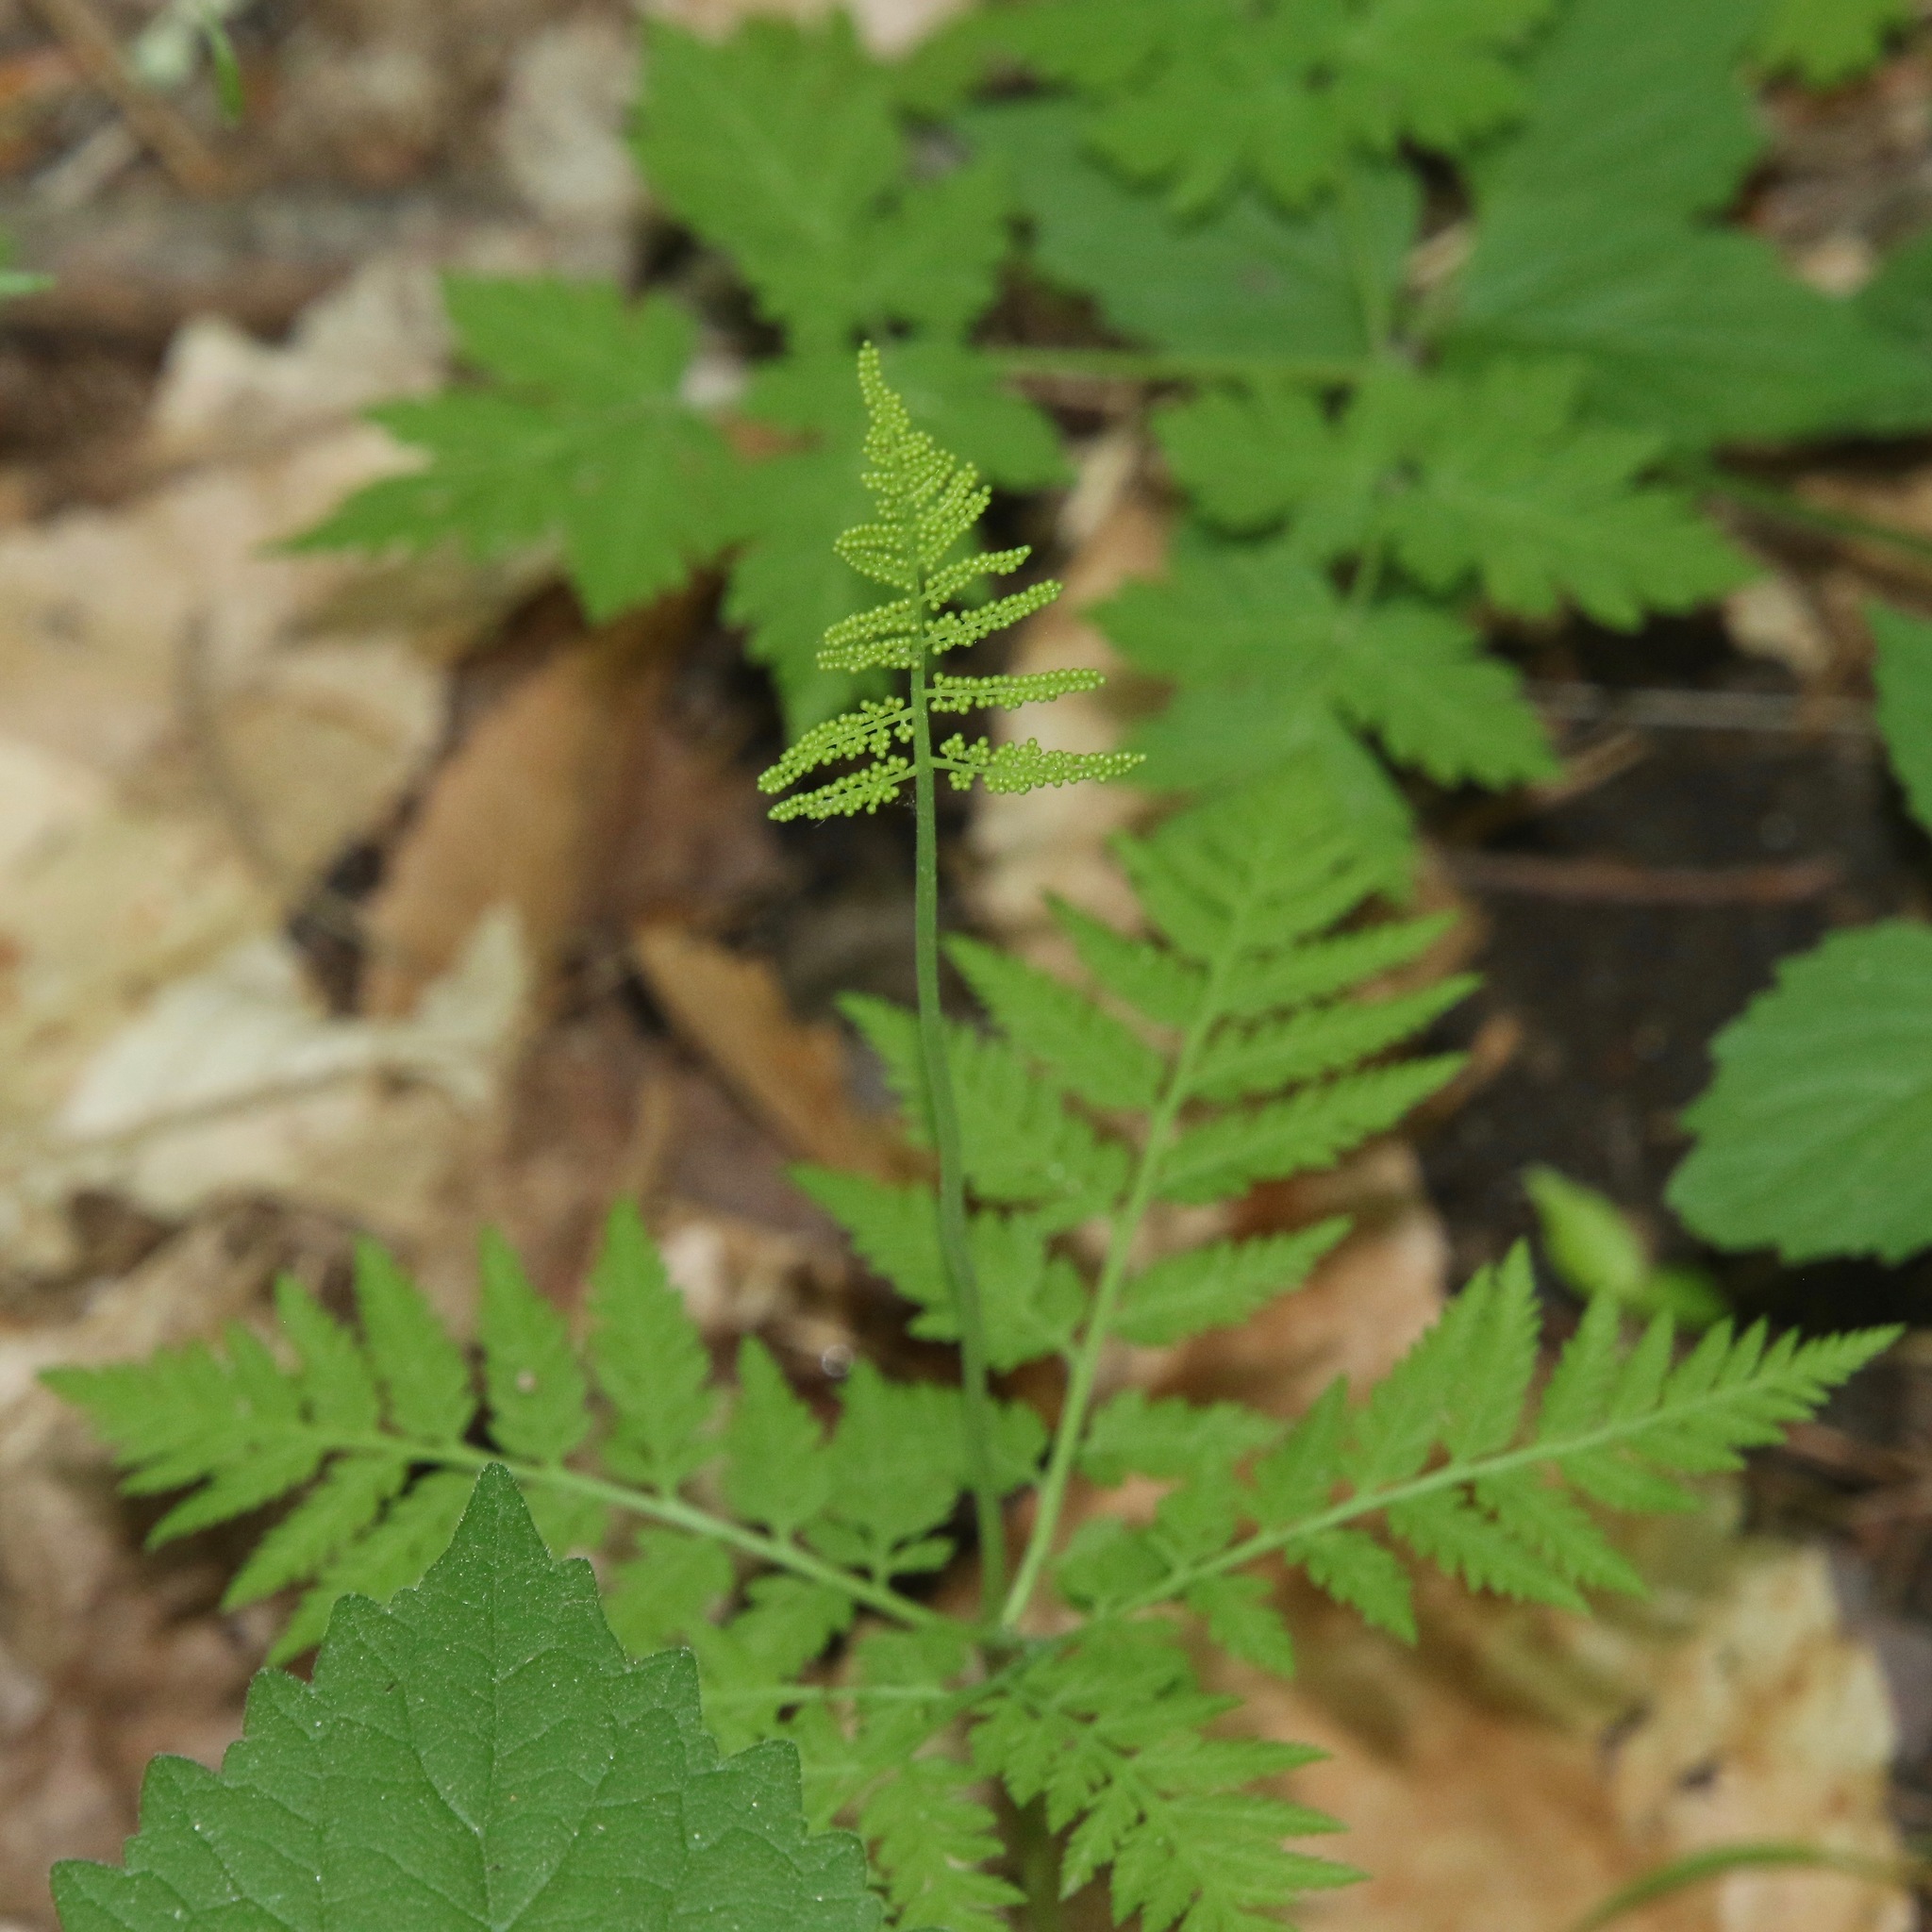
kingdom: Plantae
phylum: Tracheophyta
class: Polypodiopsida
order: Ophioglossales
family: Ophioglossaceae
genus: Botrypus
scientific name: Botrypus virginianus
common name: Common grapefern
